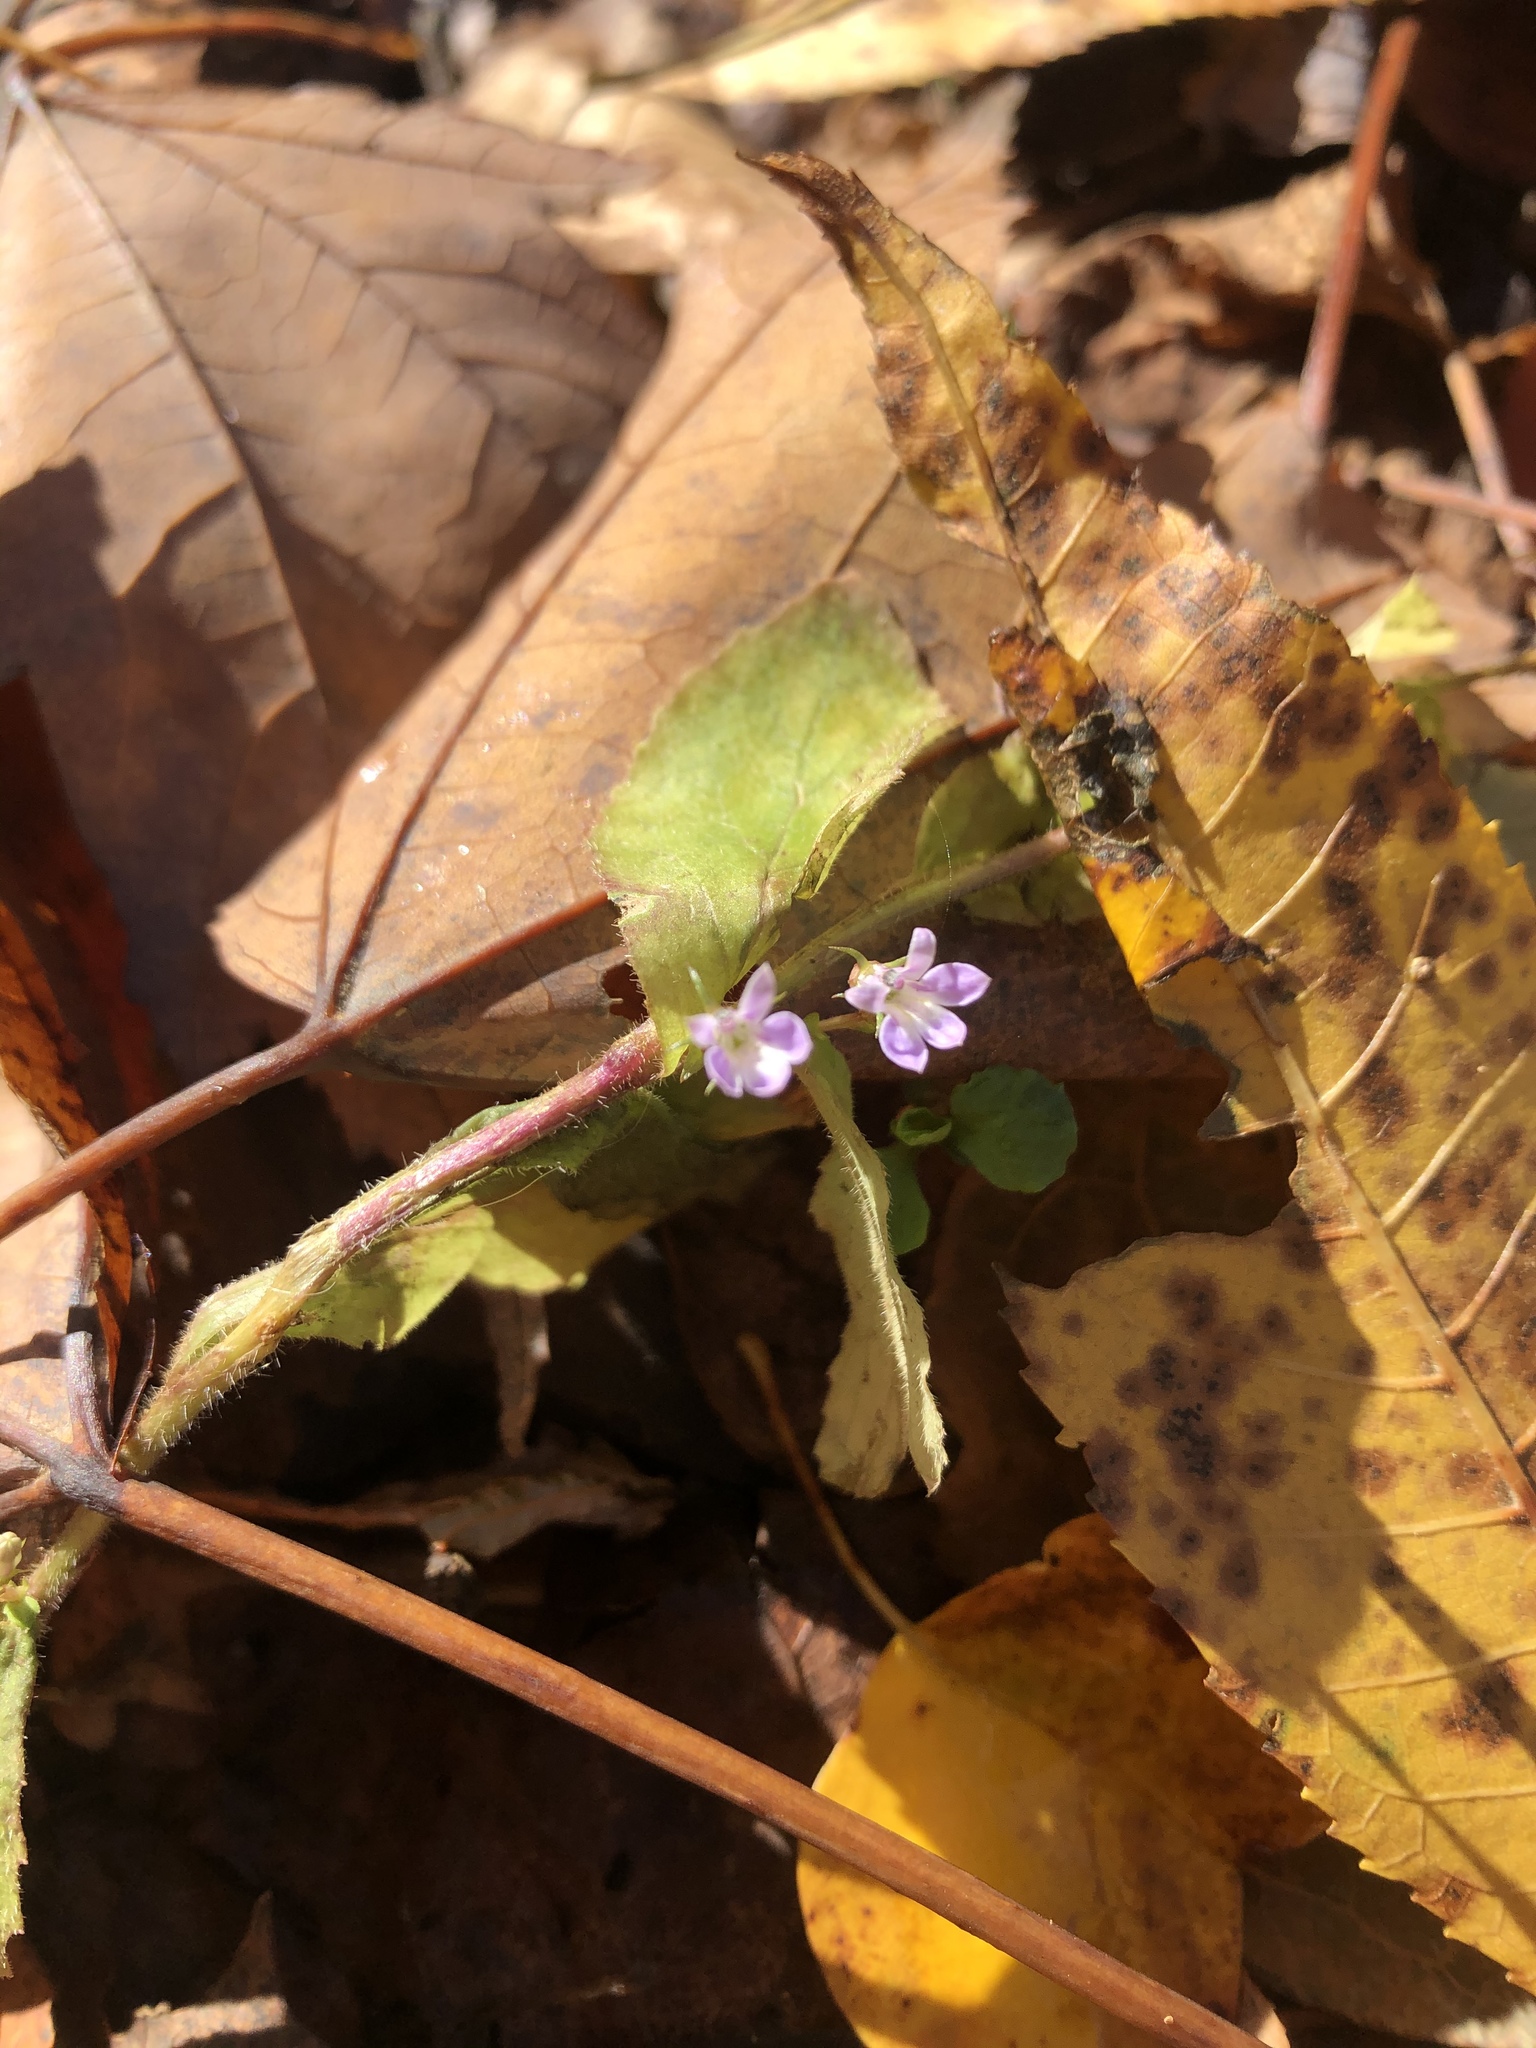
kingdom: Plantae
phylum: Tracheophyta
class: Magnoliopsida
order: Asterales
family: Campanulaceae
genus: Lobelia
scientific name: Lobelia inflata
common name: Indian tobacco
